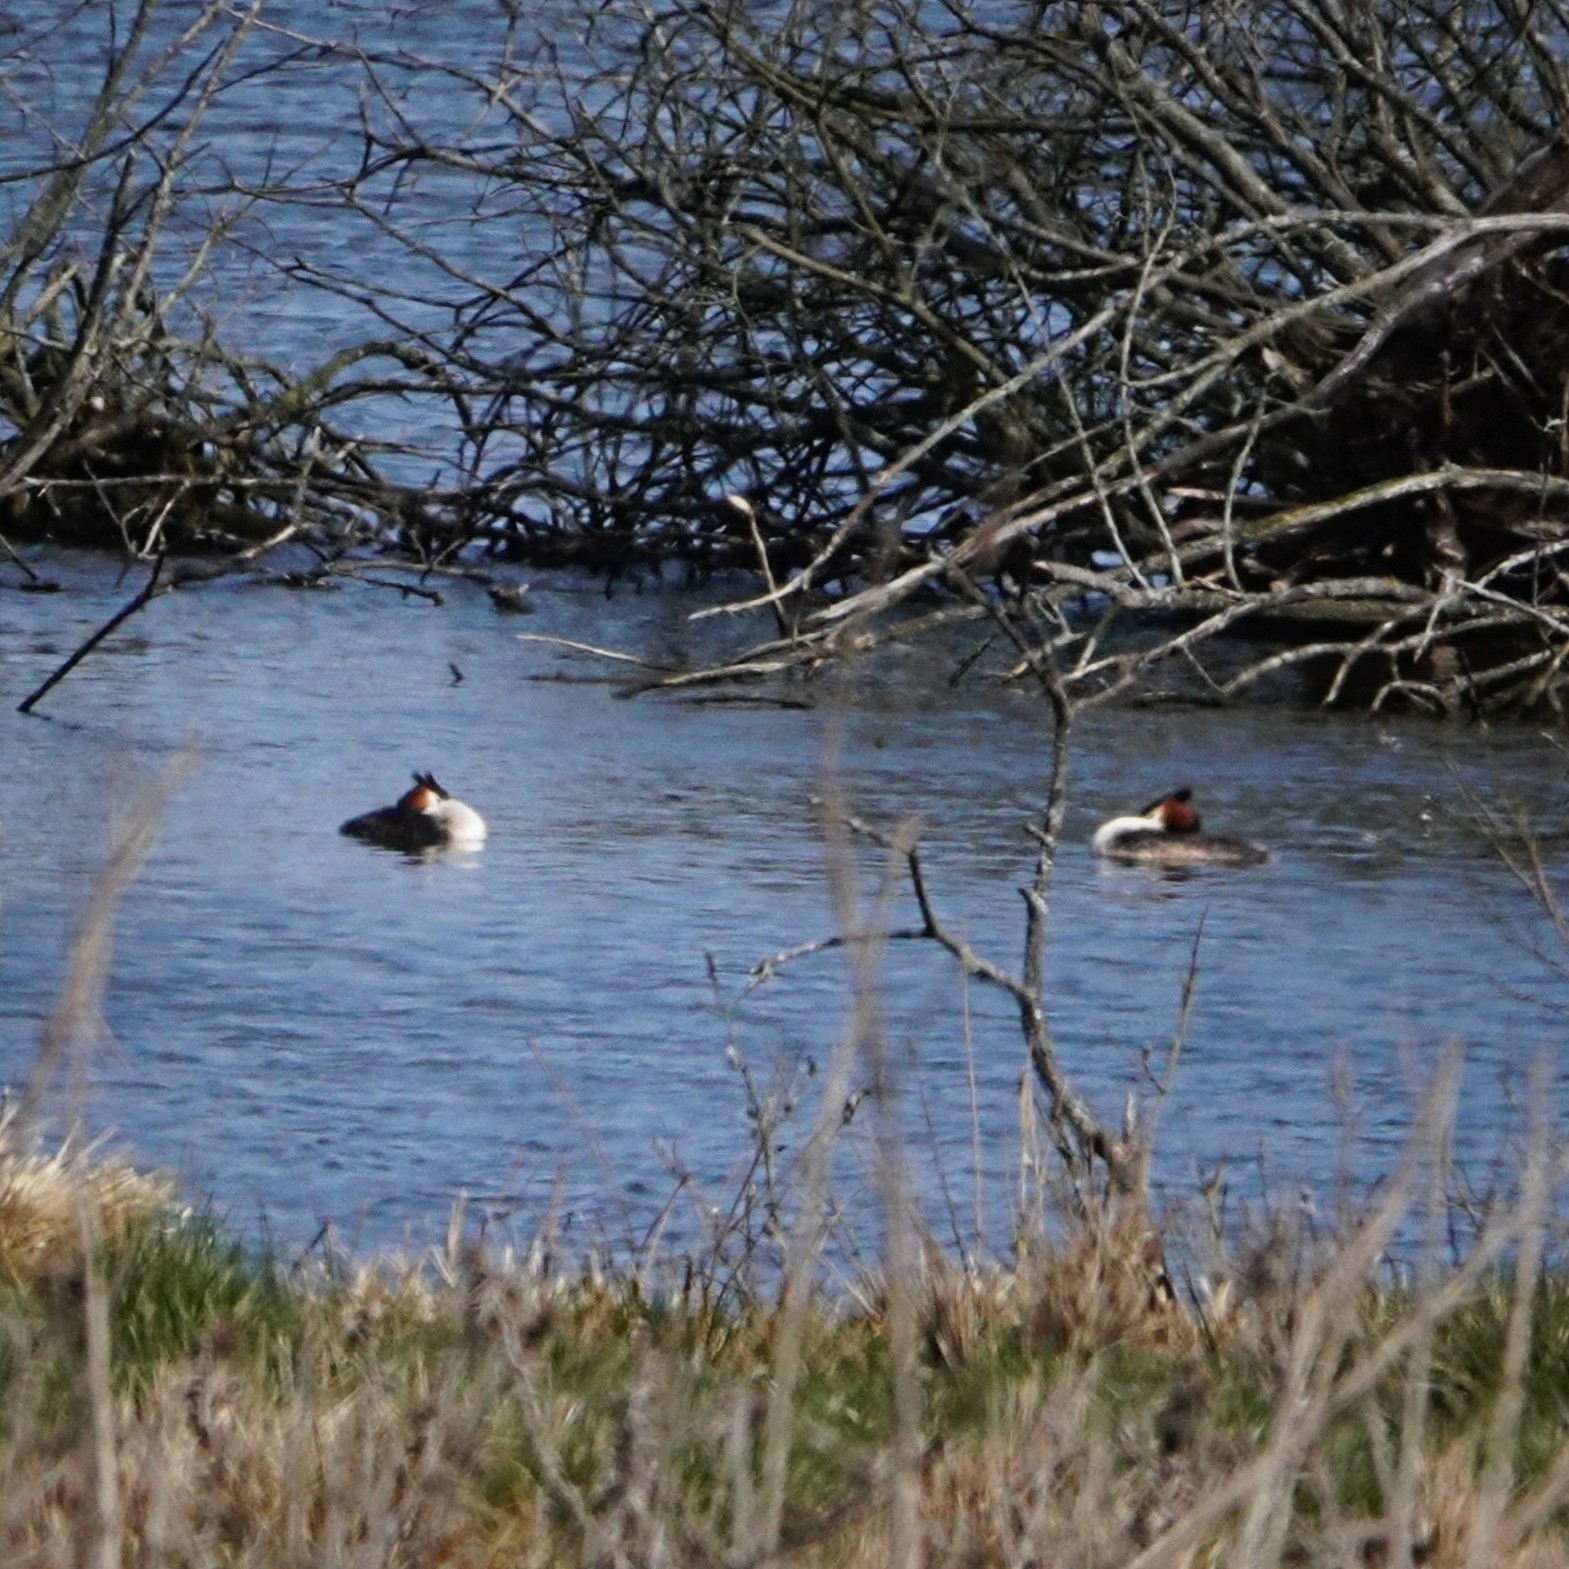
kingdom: Animalia
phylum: Chordata
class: Aves
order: Podicipediformes
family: Podicipedidae
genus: Podiceps
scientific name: Podiceps cristatus
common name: Great crested grebe
